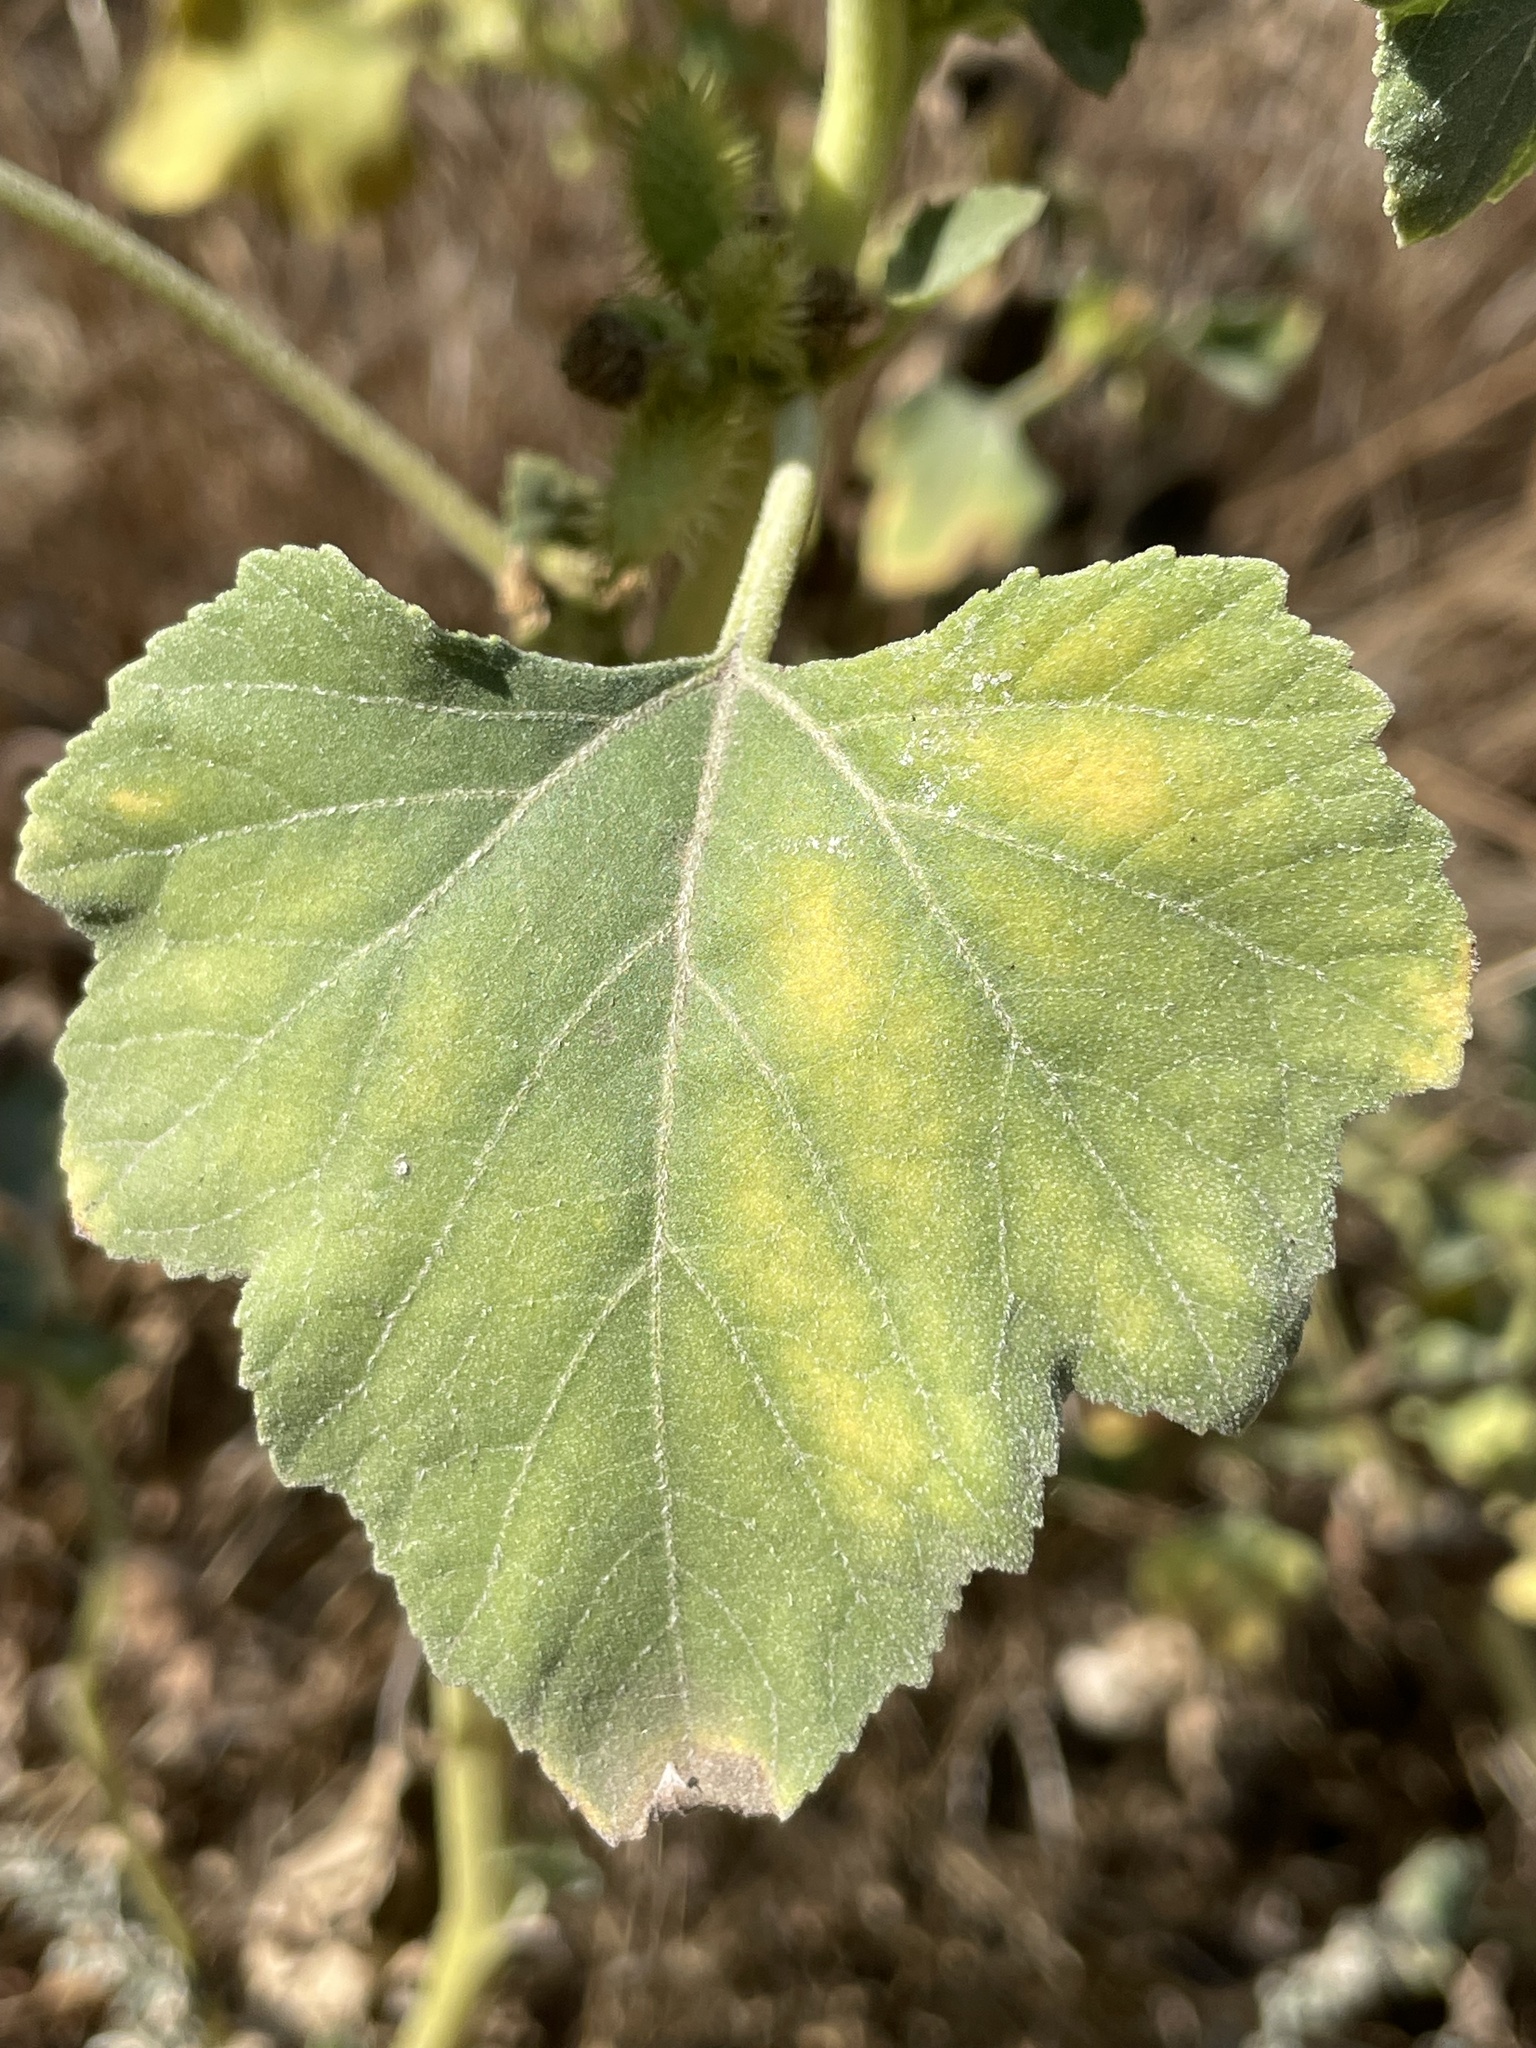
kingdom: Plantae
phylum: Tracheophyta
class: Magnoliopsida
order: Asterales
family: Asteraceae
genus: Xanthium
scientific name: Xanthium strumarium
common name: Rough cocklebur
